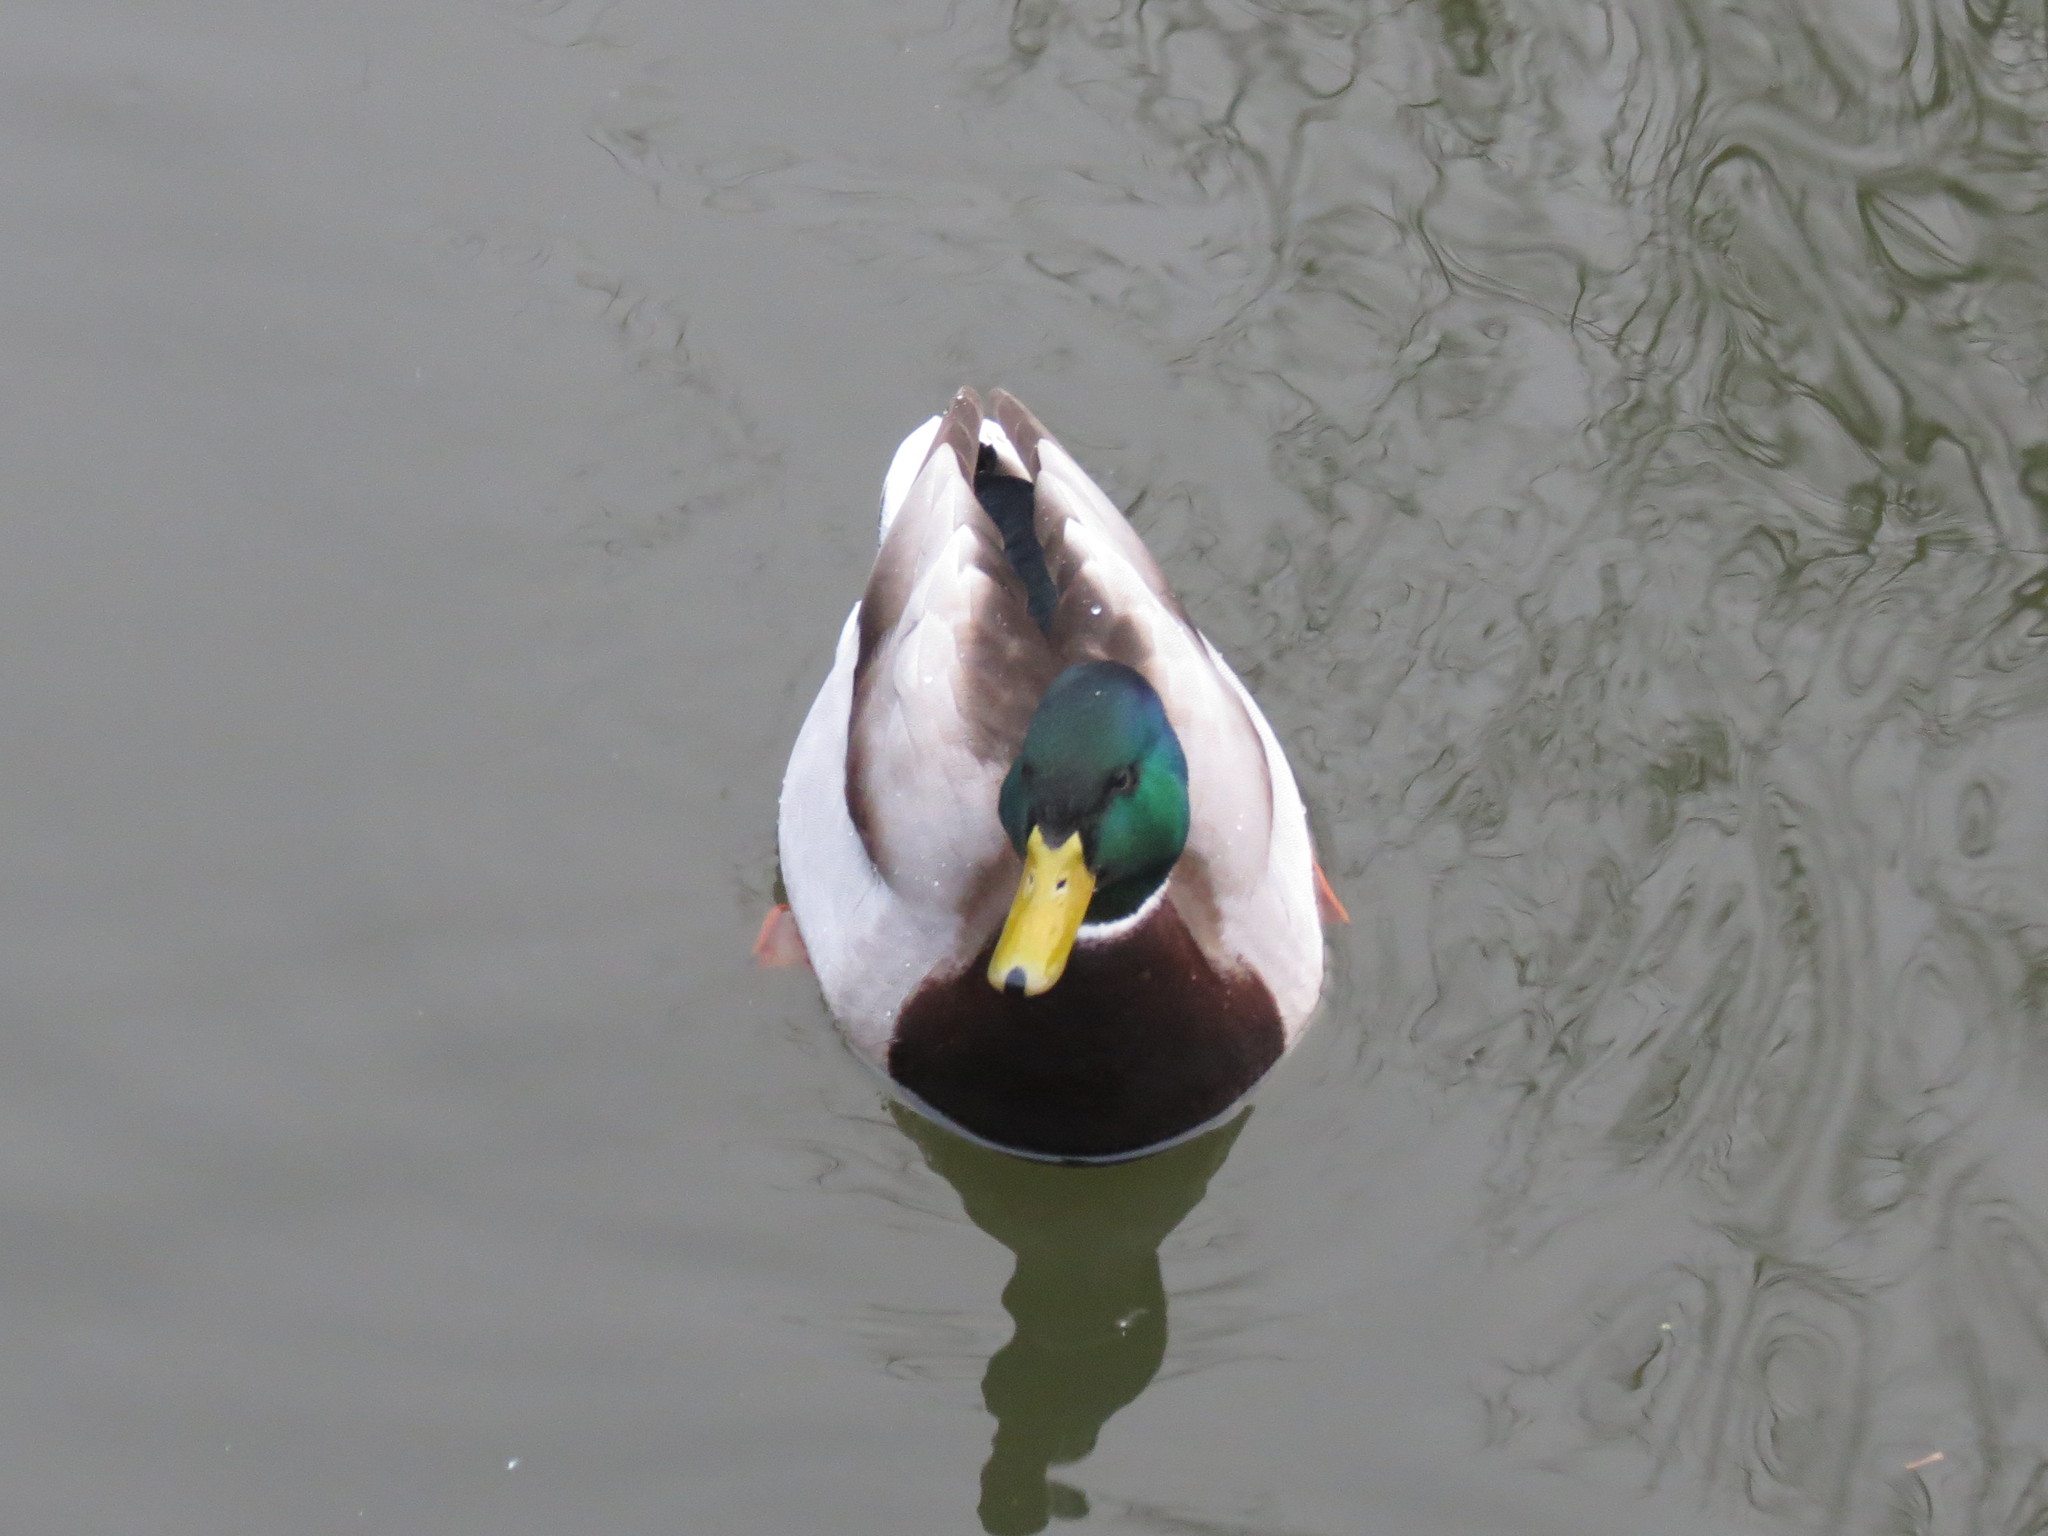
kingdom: Animalia
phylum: Chordata
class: Aves
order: Anseriformes
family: Anatidae
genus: Anas
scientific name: Anas platyrhynchos
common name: Mallard
